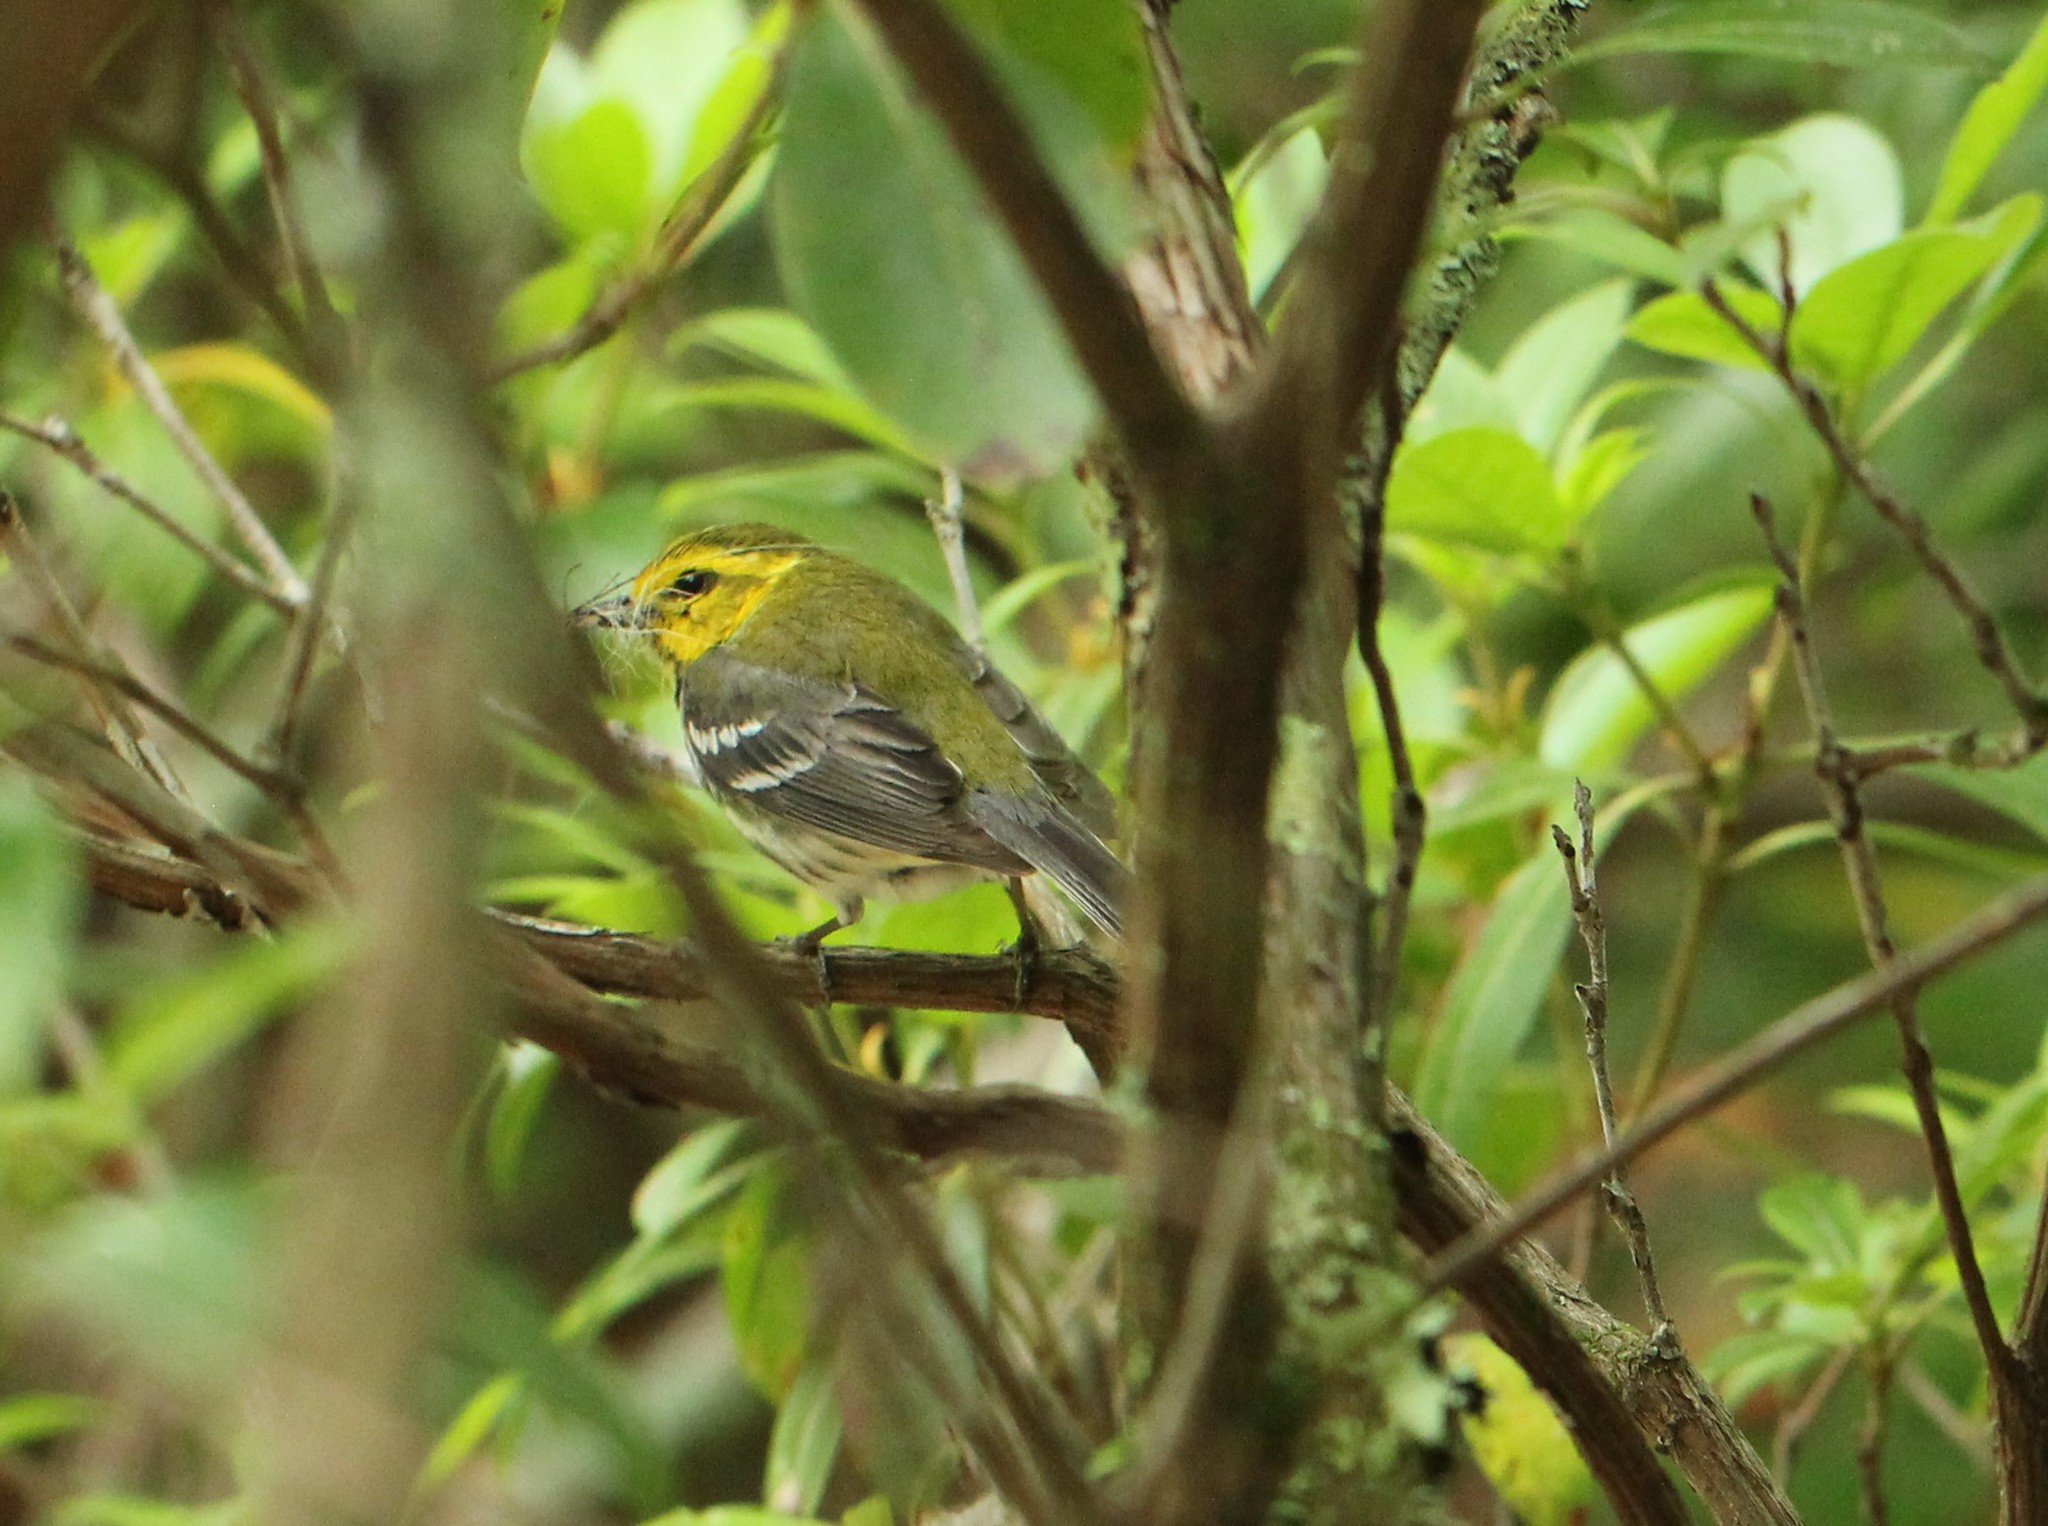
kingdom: Animalia
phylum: Chordata
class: Aves
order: Passeriformes
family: Parulidae
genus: Setophaga
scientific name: Setophaga virens
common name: Black-throated green warbler
